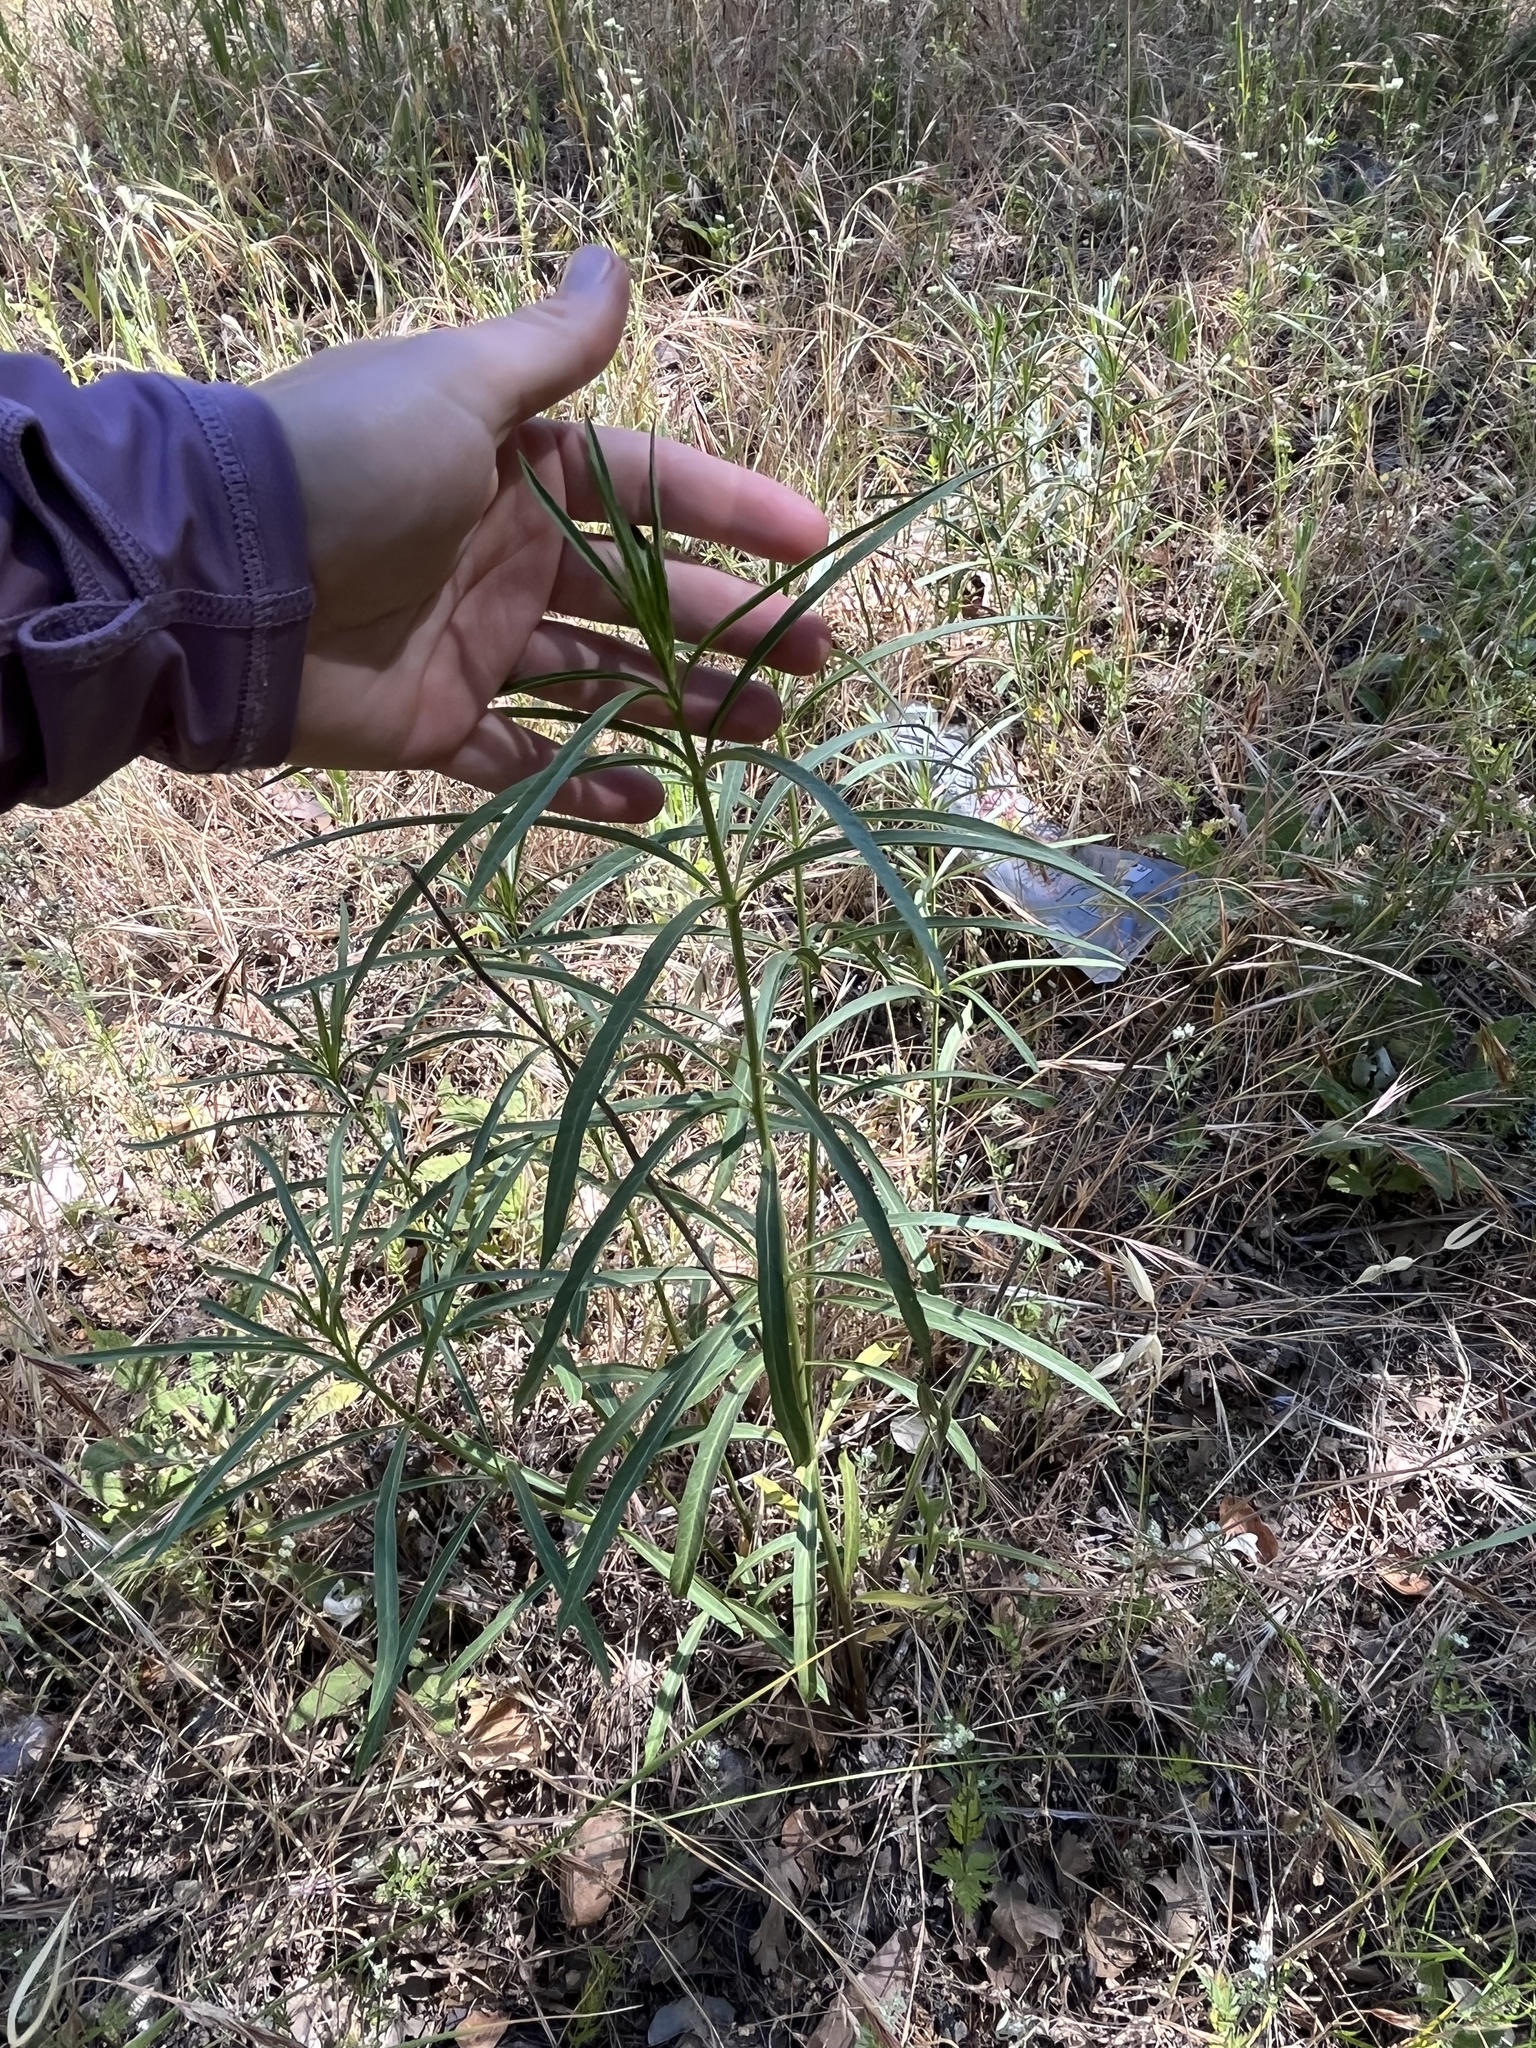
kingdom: Plantae
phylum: Tracheophyta
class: Magnoliopsida
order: Gentianales
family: Apocynaceae
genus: Asclepias
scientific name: Asclepias fascicularis
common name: Mexican milkweed
